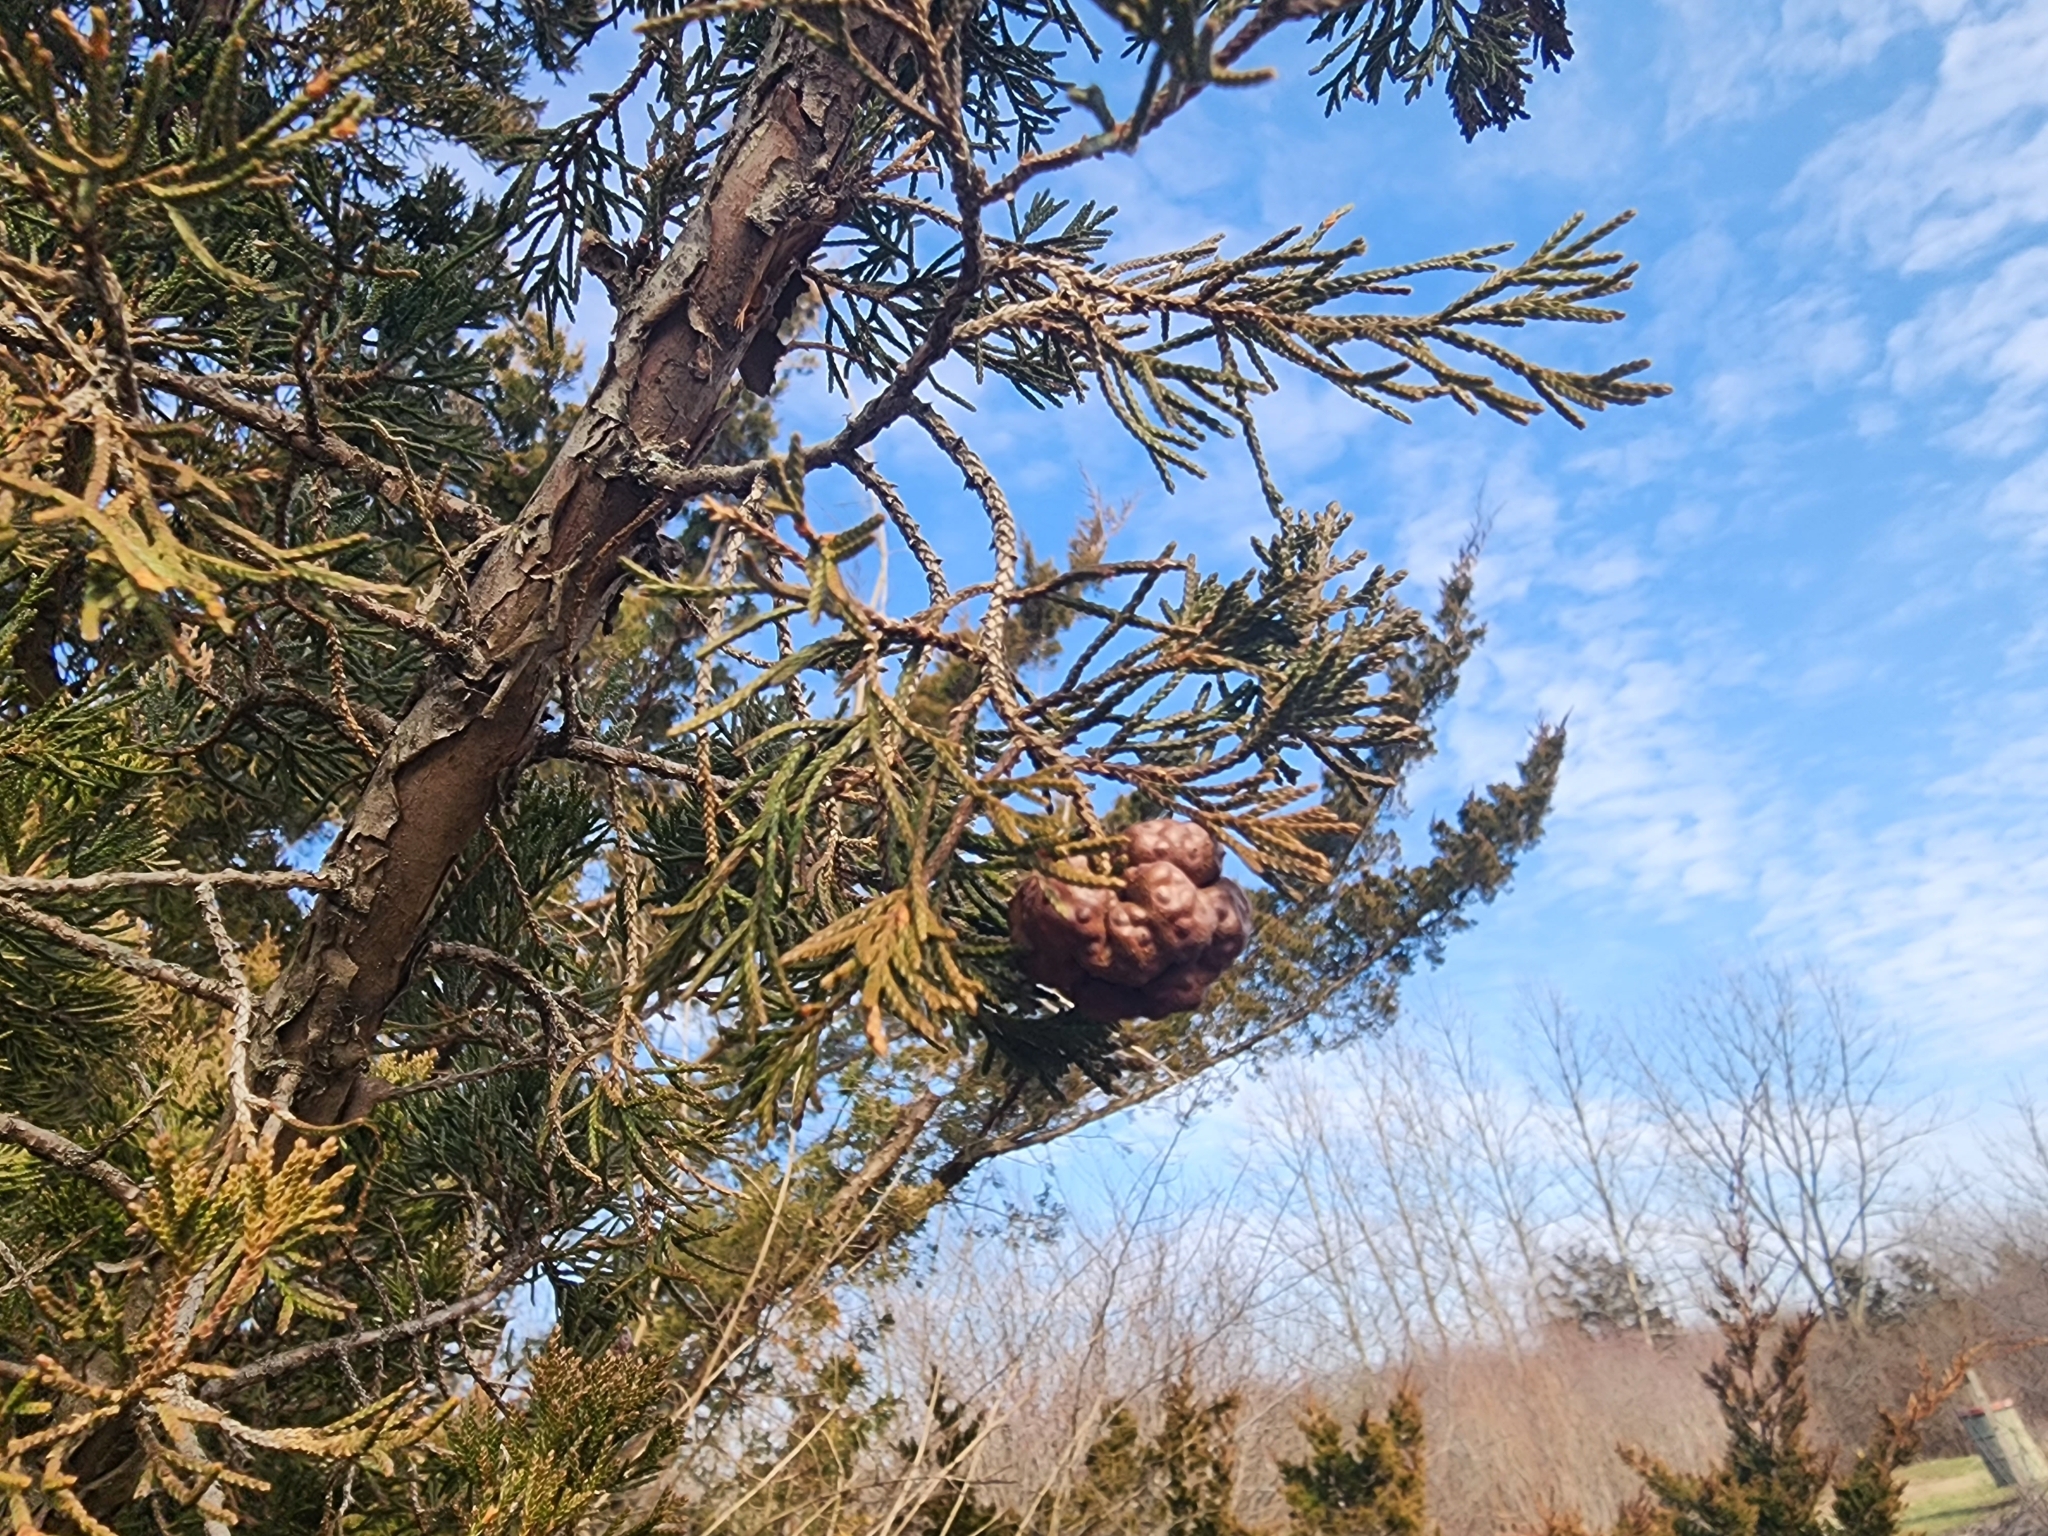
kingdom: Fungi
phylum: Basidiomycota
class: Pucciniomycetes
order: Pucciniales
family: Gymnosporangiaceae
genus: Gymnosporangium
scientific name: Gymnosporangium juniperi-virginianae
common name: Juniper-apple rust
